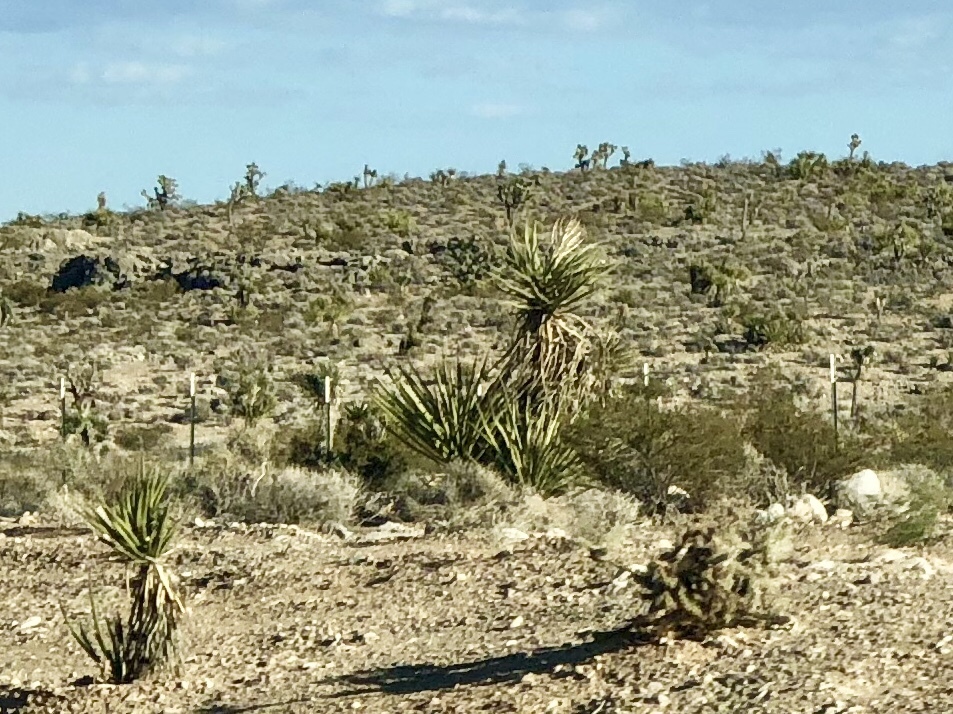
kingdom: Plantae
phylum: Tracheophyta
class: Liliopsida
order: Asparagales
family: Asparagaceae
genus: Yucca
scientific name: Yucca schidigera
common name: Mojave yucca
